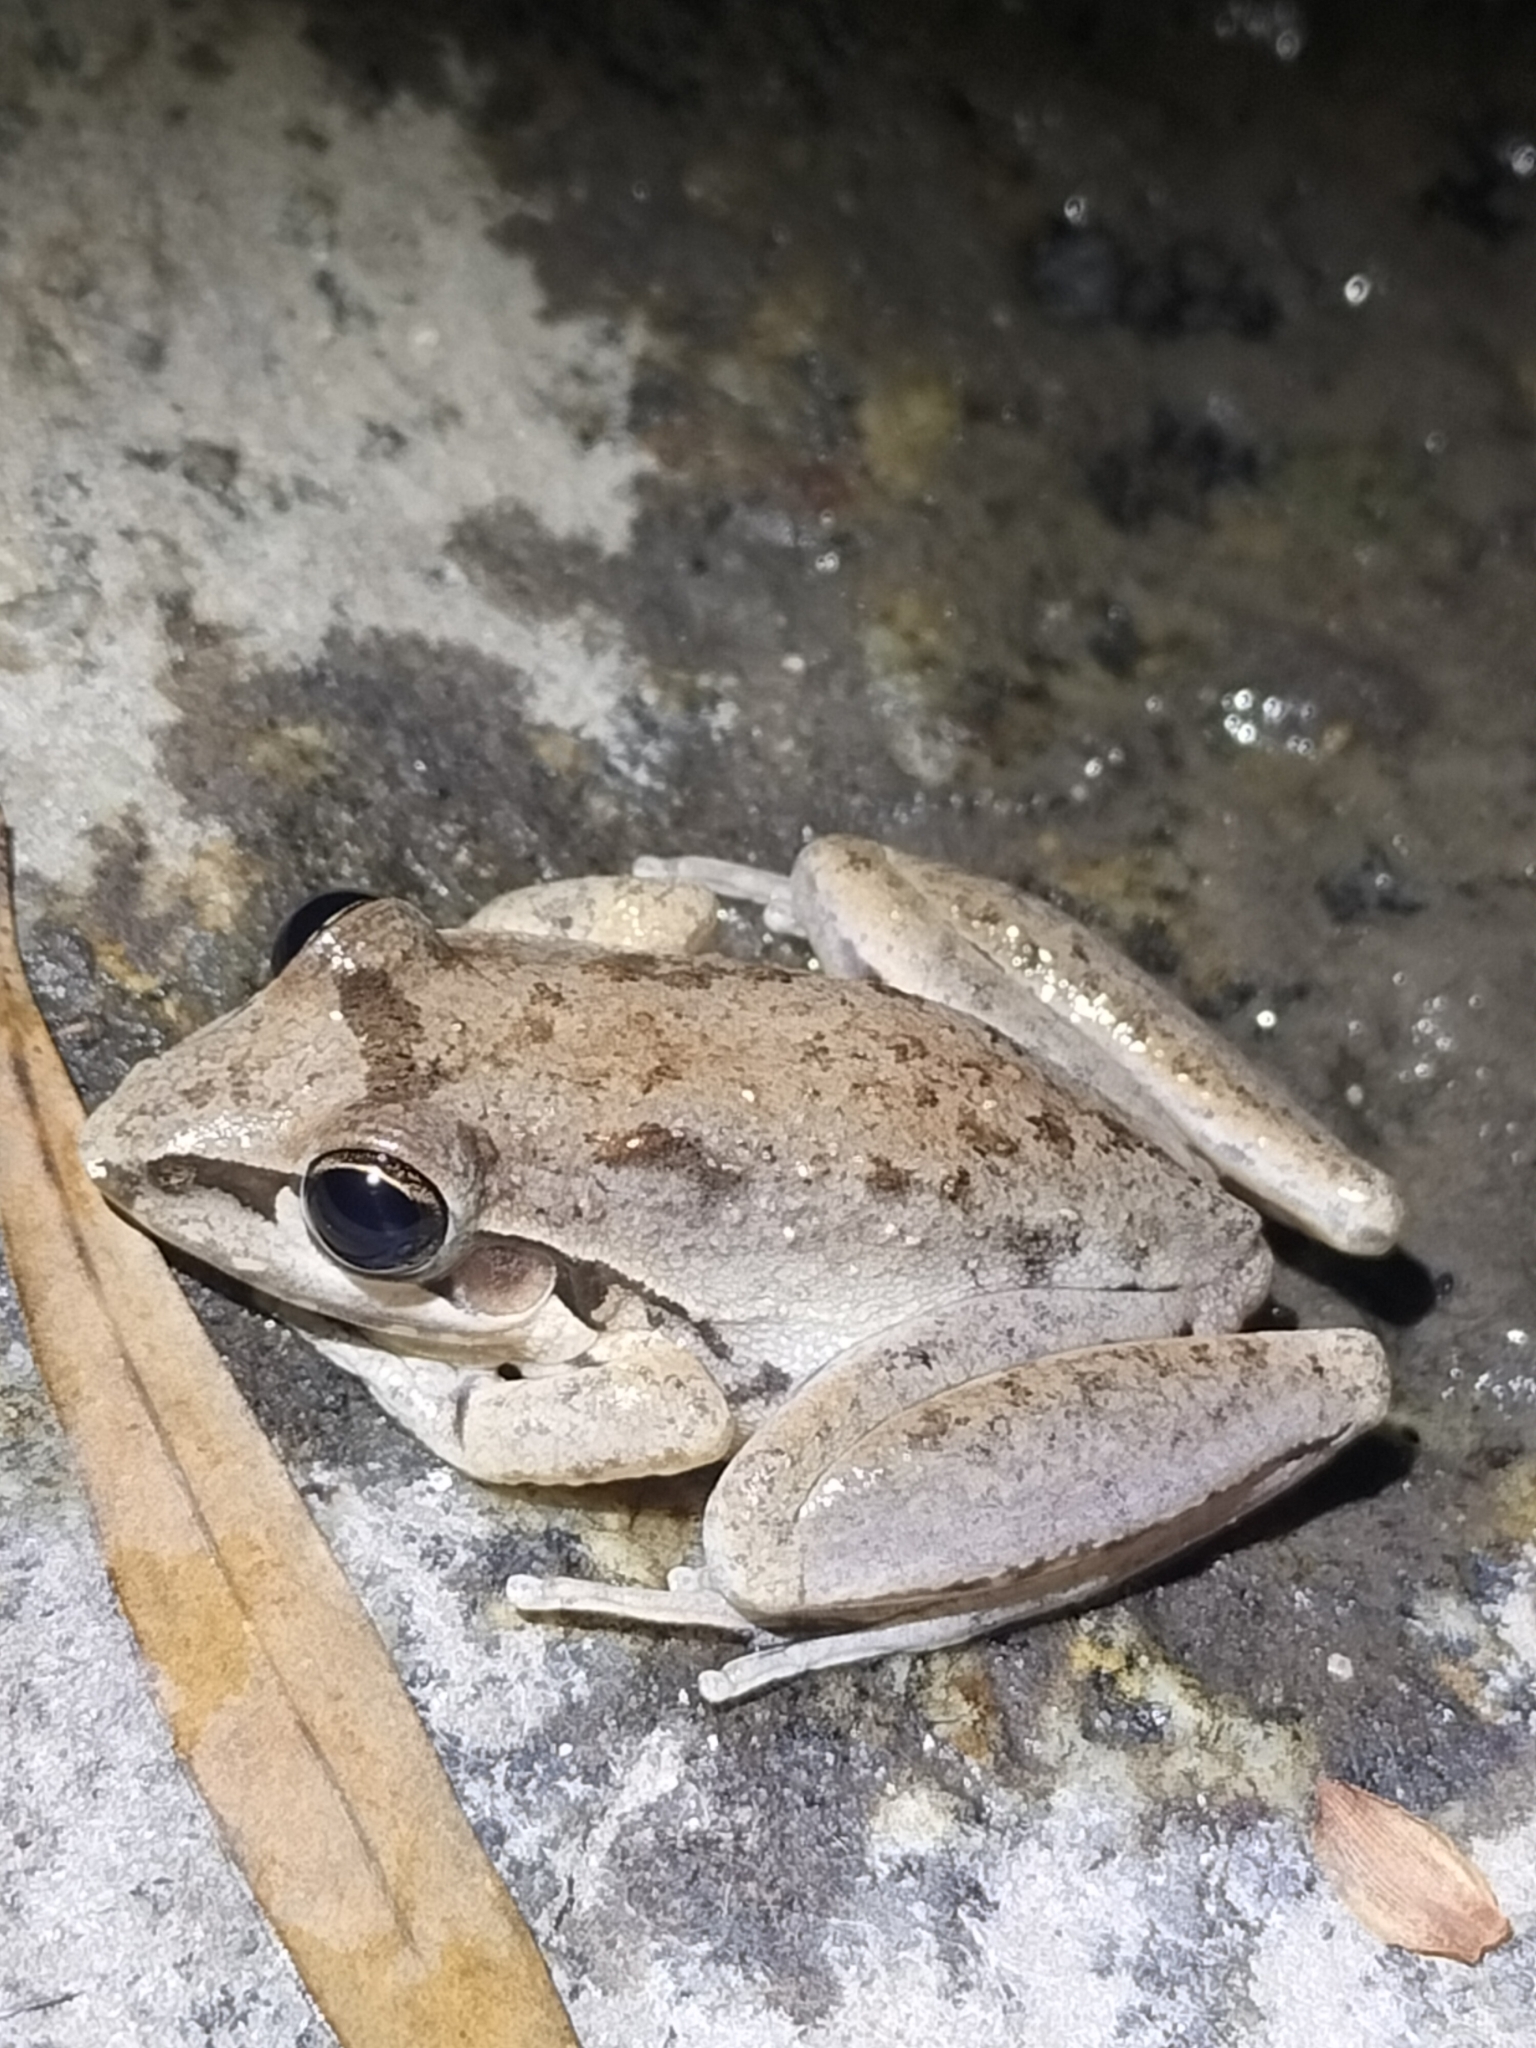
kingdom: Animalia
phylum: Chordata
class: Amphibia
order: Anura
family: Pelodryadidae
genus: Litoria
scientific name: Litoria latopalmata
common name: Broad-palmed rocket frog
